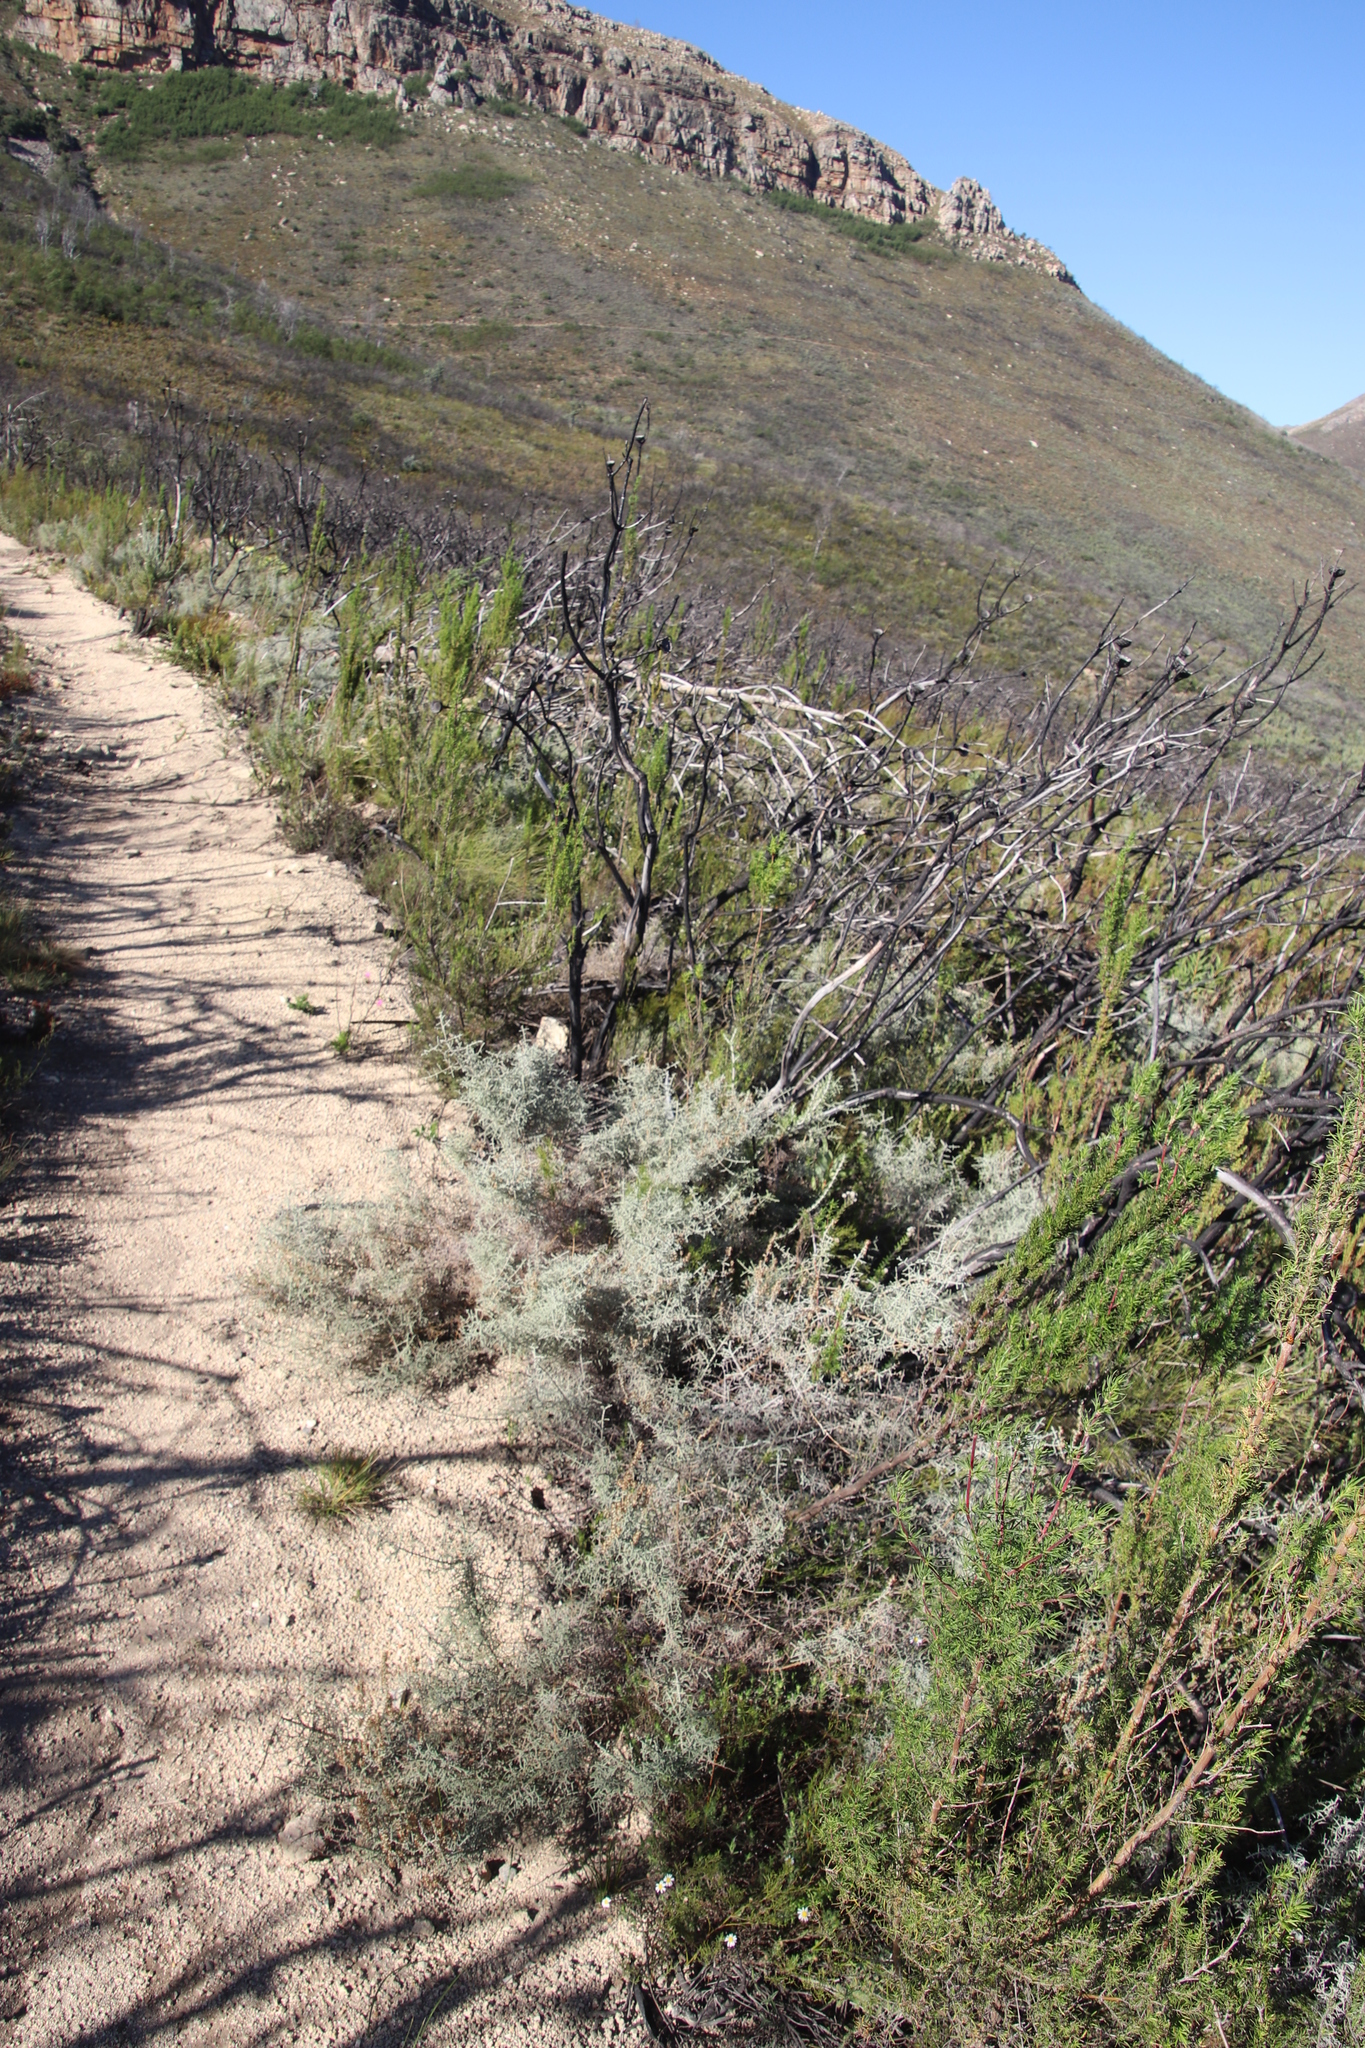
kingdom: Plantae
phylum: Tracheophyta
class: Magnoliopsida
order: Asterales
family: Asteraceae
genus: Seriphium
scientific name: Seriphium plumosum
